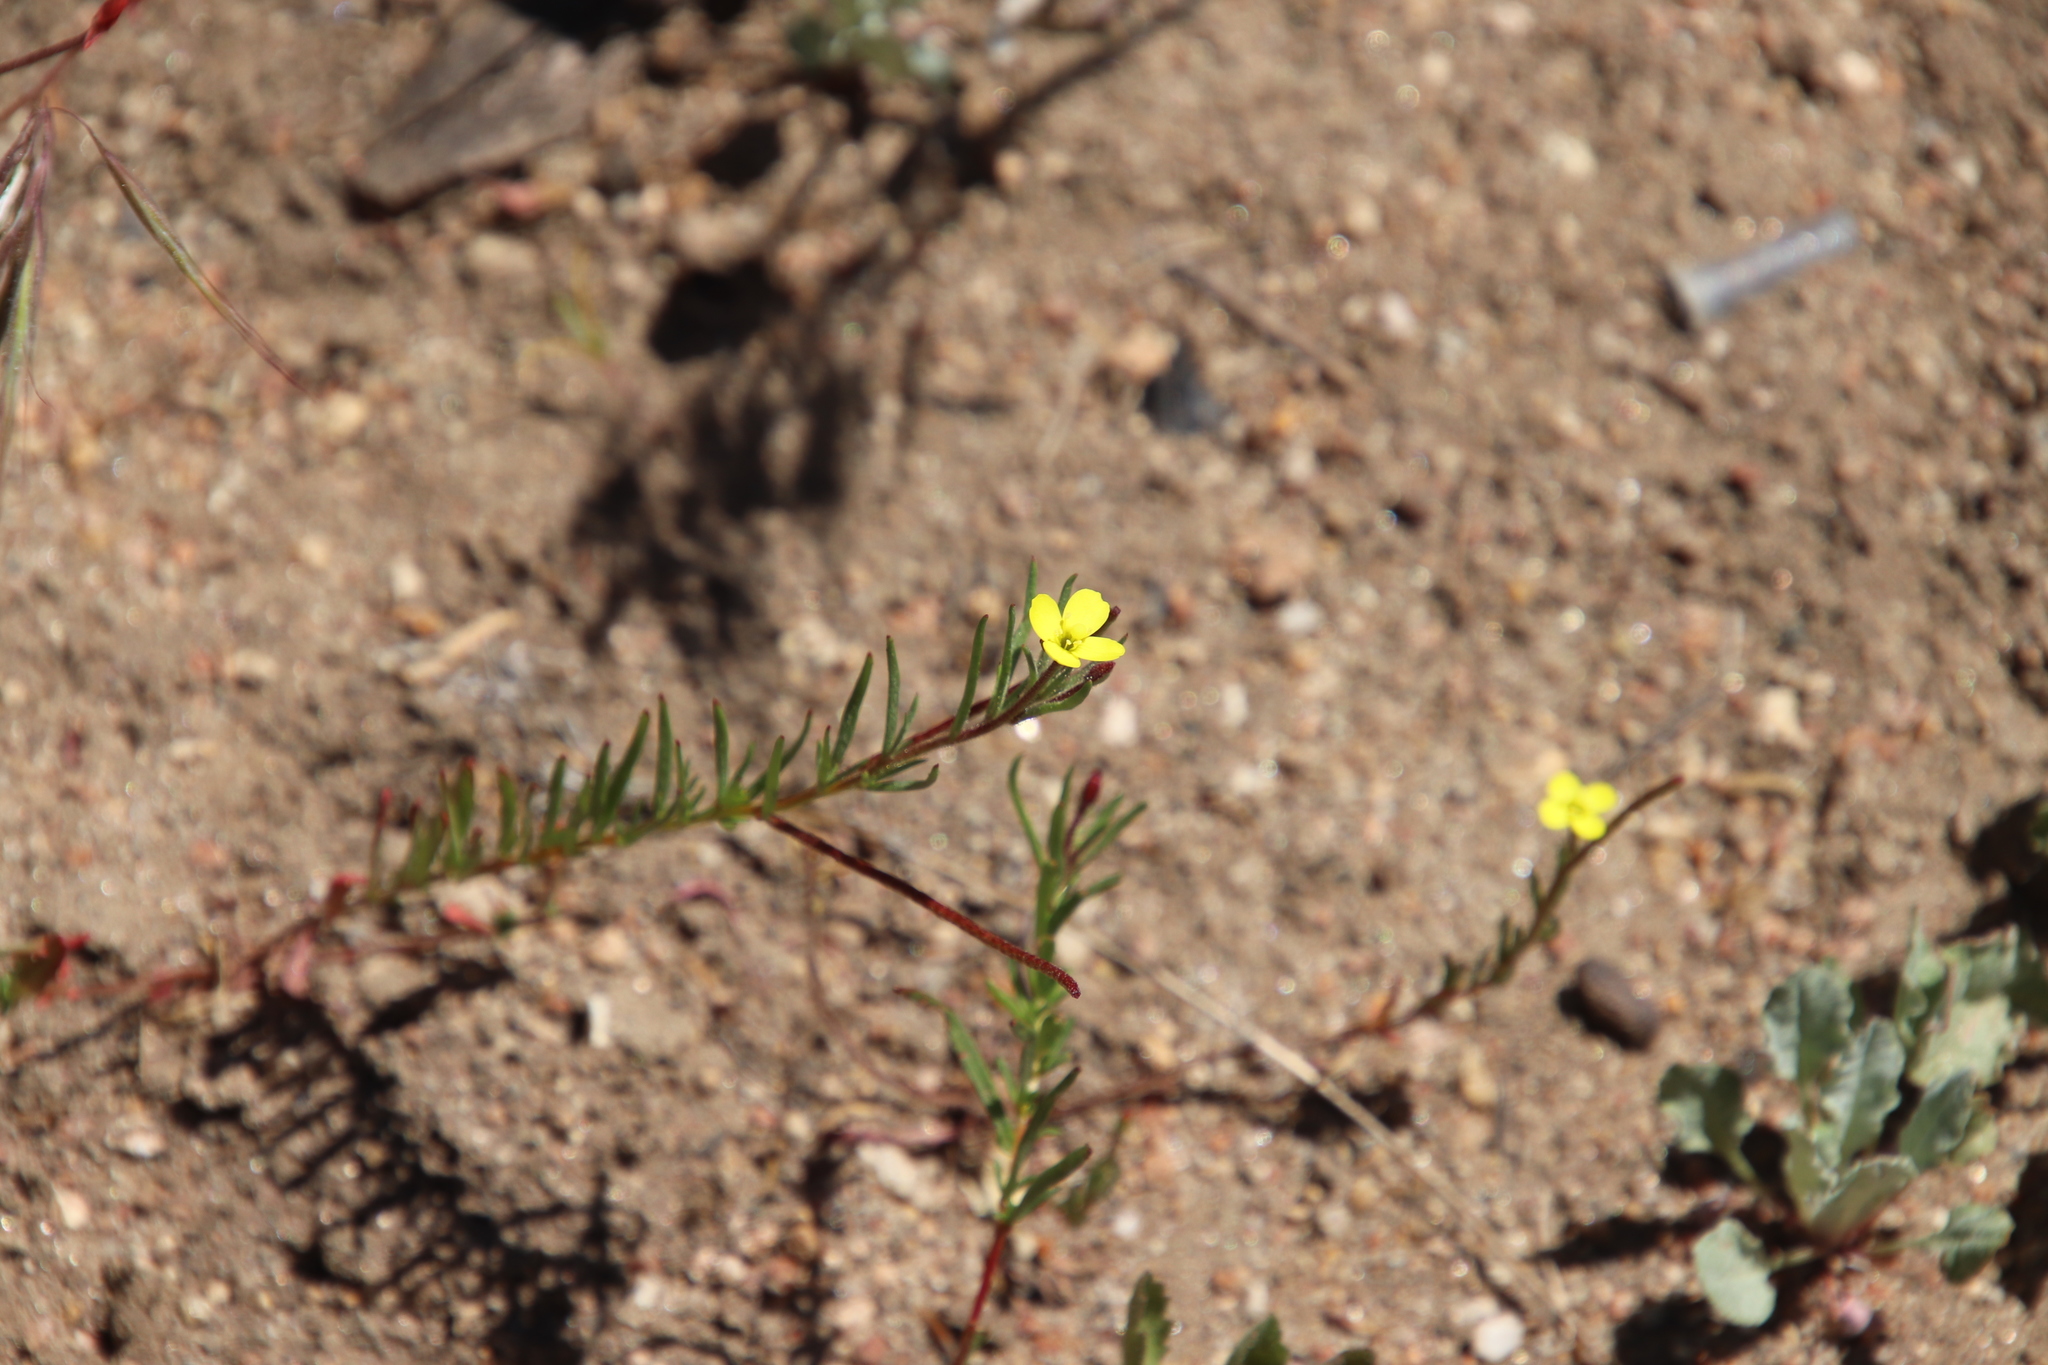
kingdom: Plantae
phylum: Tracheophyta
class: Magnoliopsida
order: Myrtales
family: Onagraceae
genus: Camissonia
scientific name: Camissonia strigulosa
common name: Contorted-primrose
